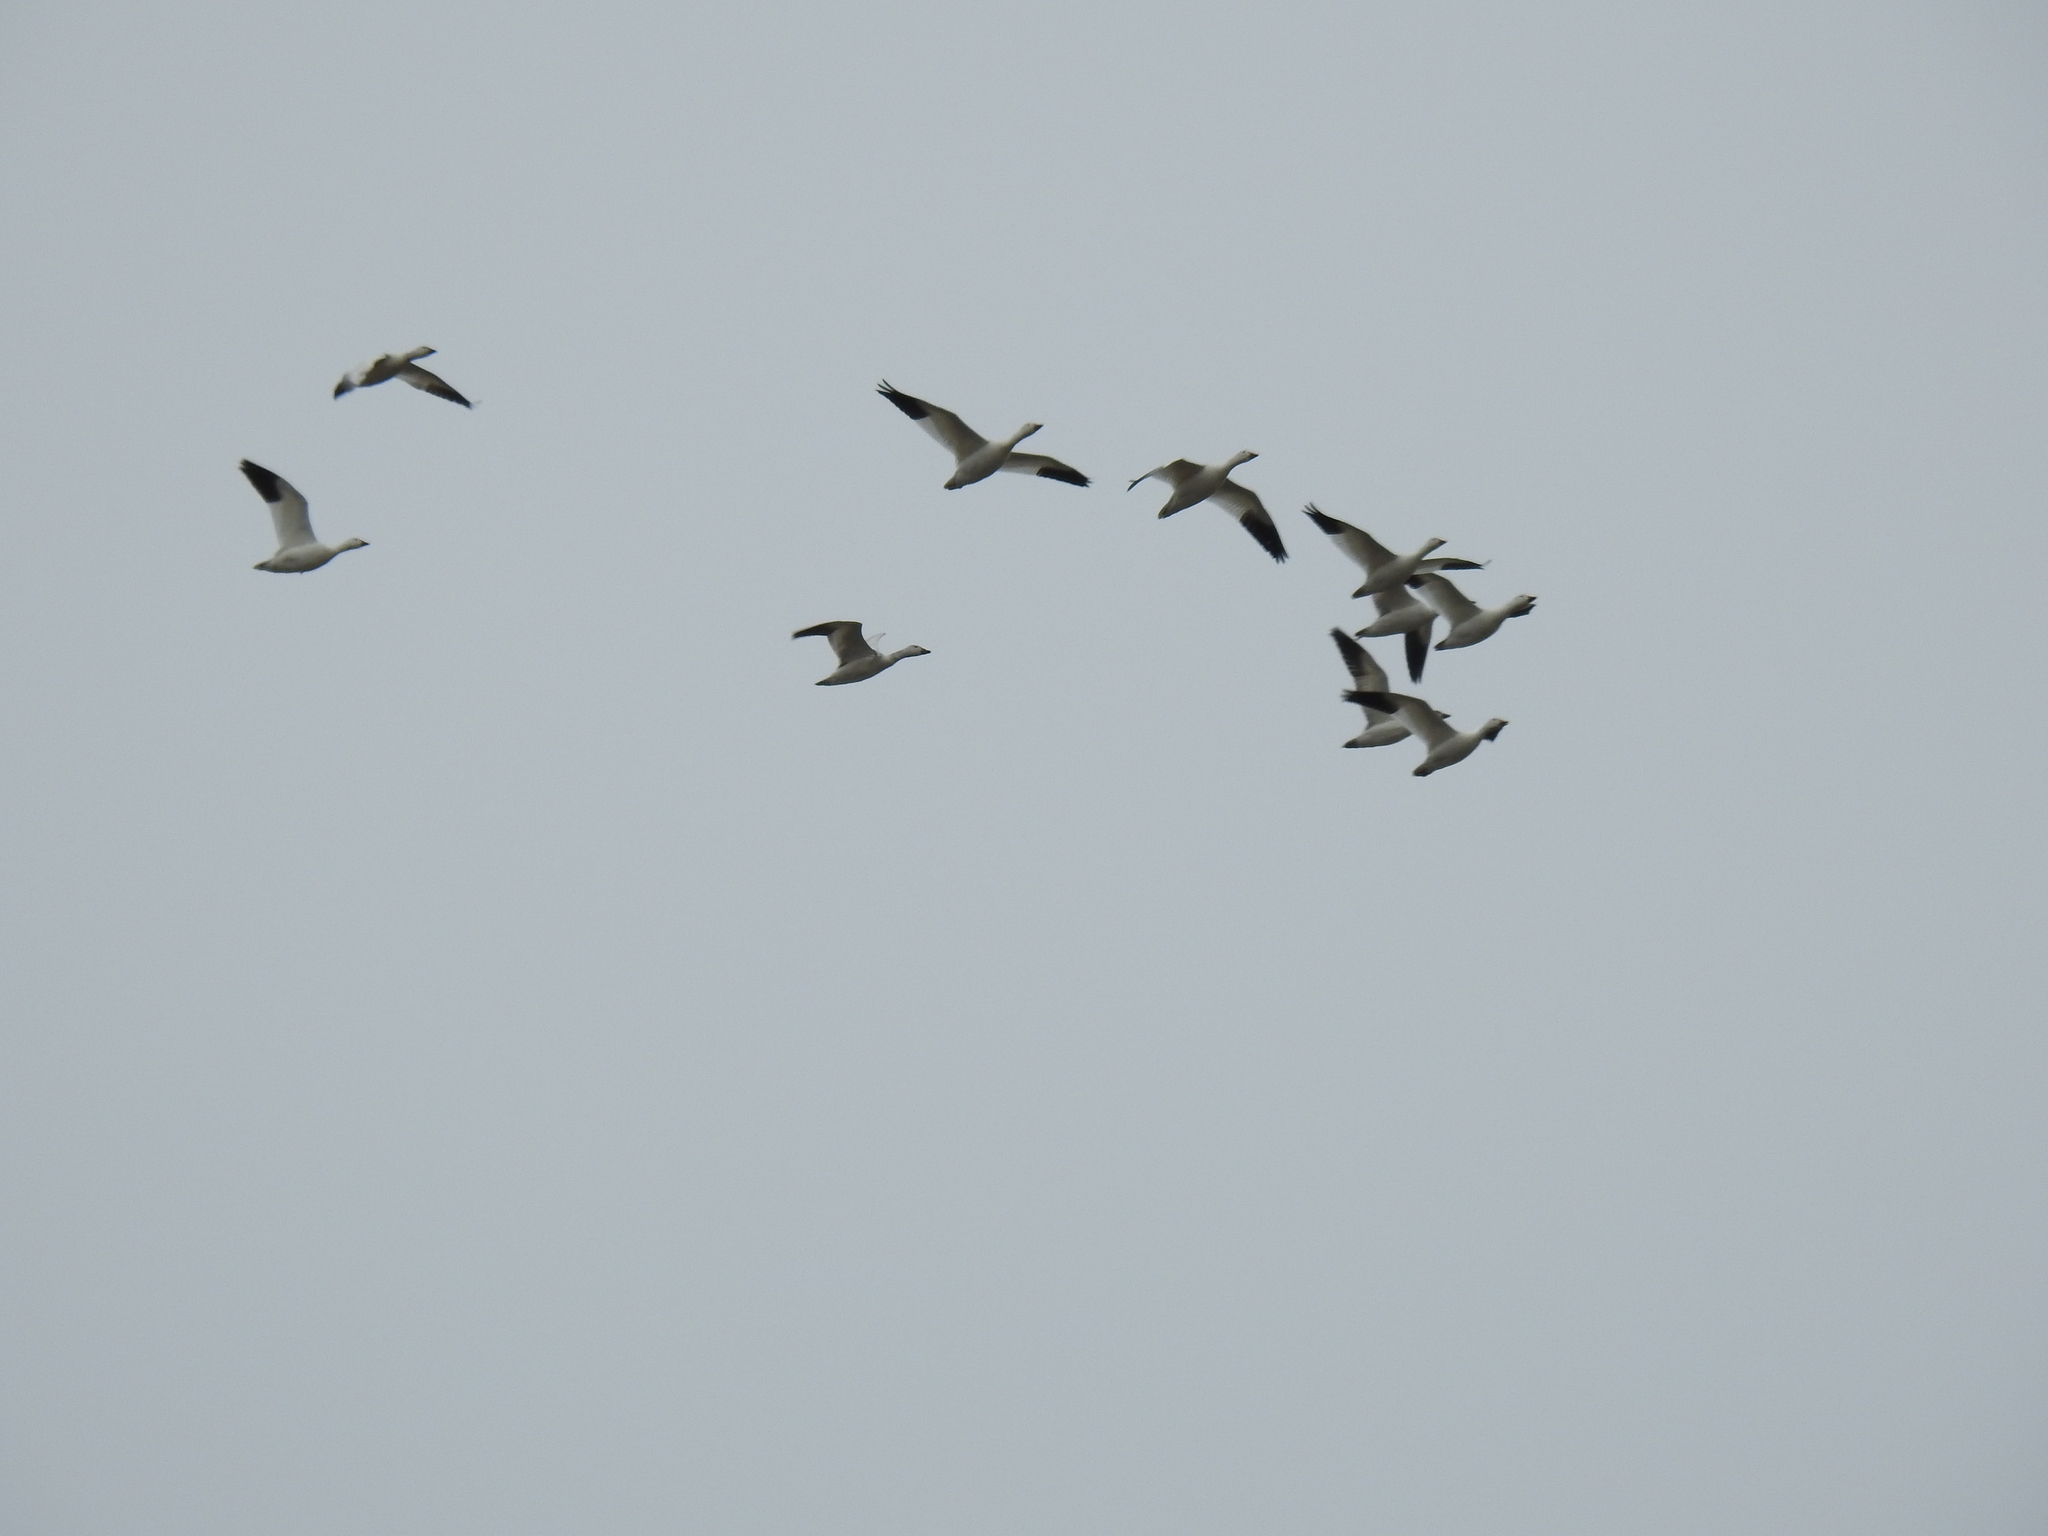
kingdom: Animalia
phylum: Chordata
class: Aves
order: Anseriformes
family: Anatidae
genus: Anser
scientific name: Anser caerulescens
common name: Snow goose
